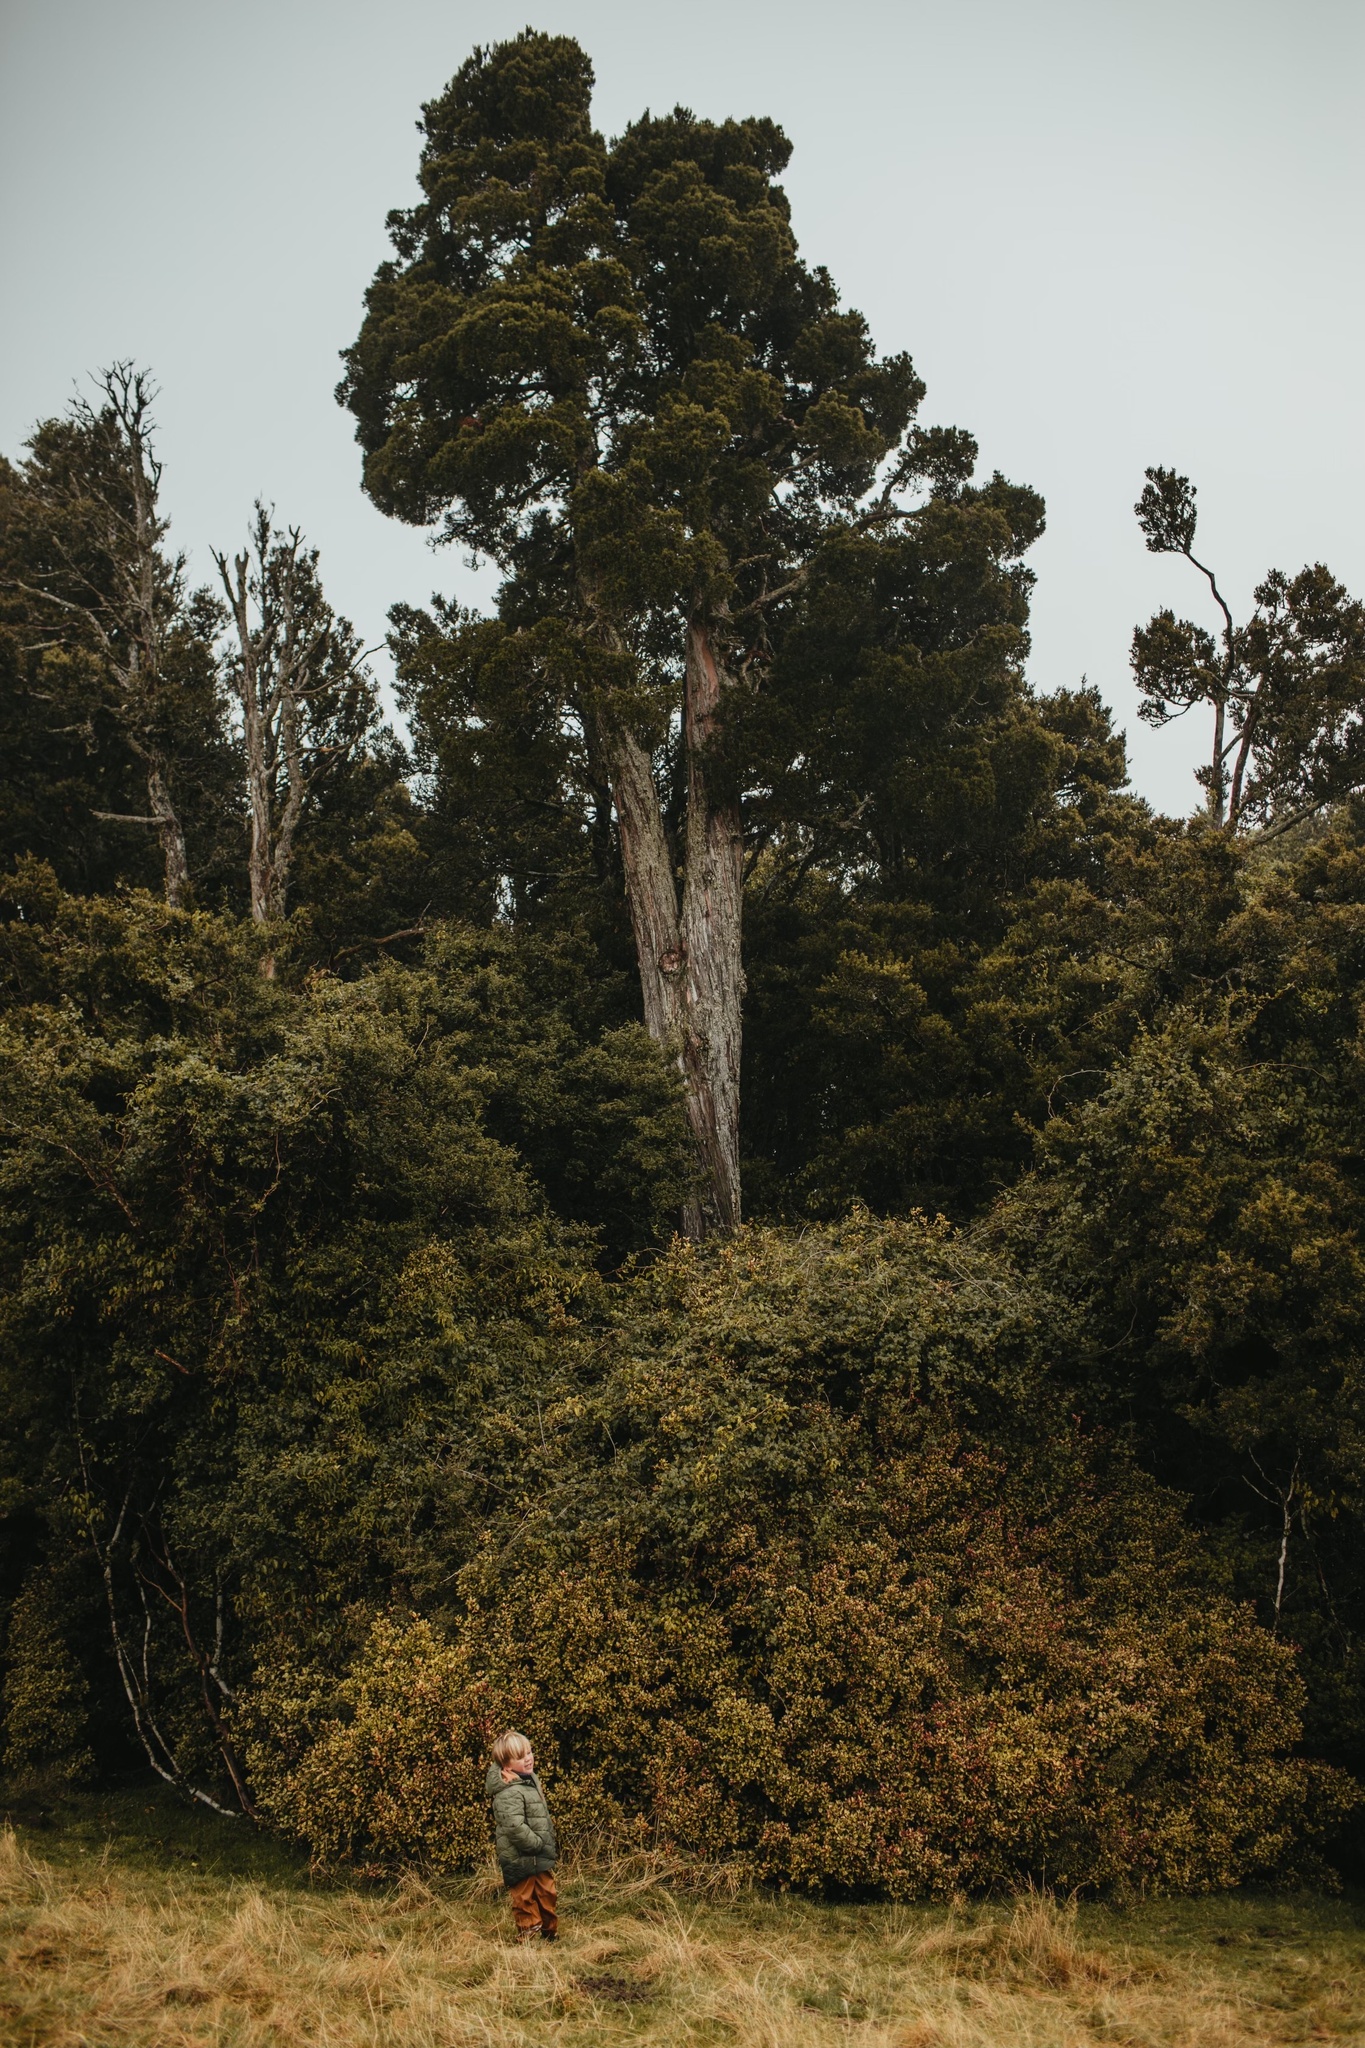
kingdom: Plantae
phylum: Tracheophyta
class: Pinopsida
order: Pinales
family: Cupressaceae
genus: Libocedrus
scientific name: Libocedrus bidwillii
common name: Cedar
